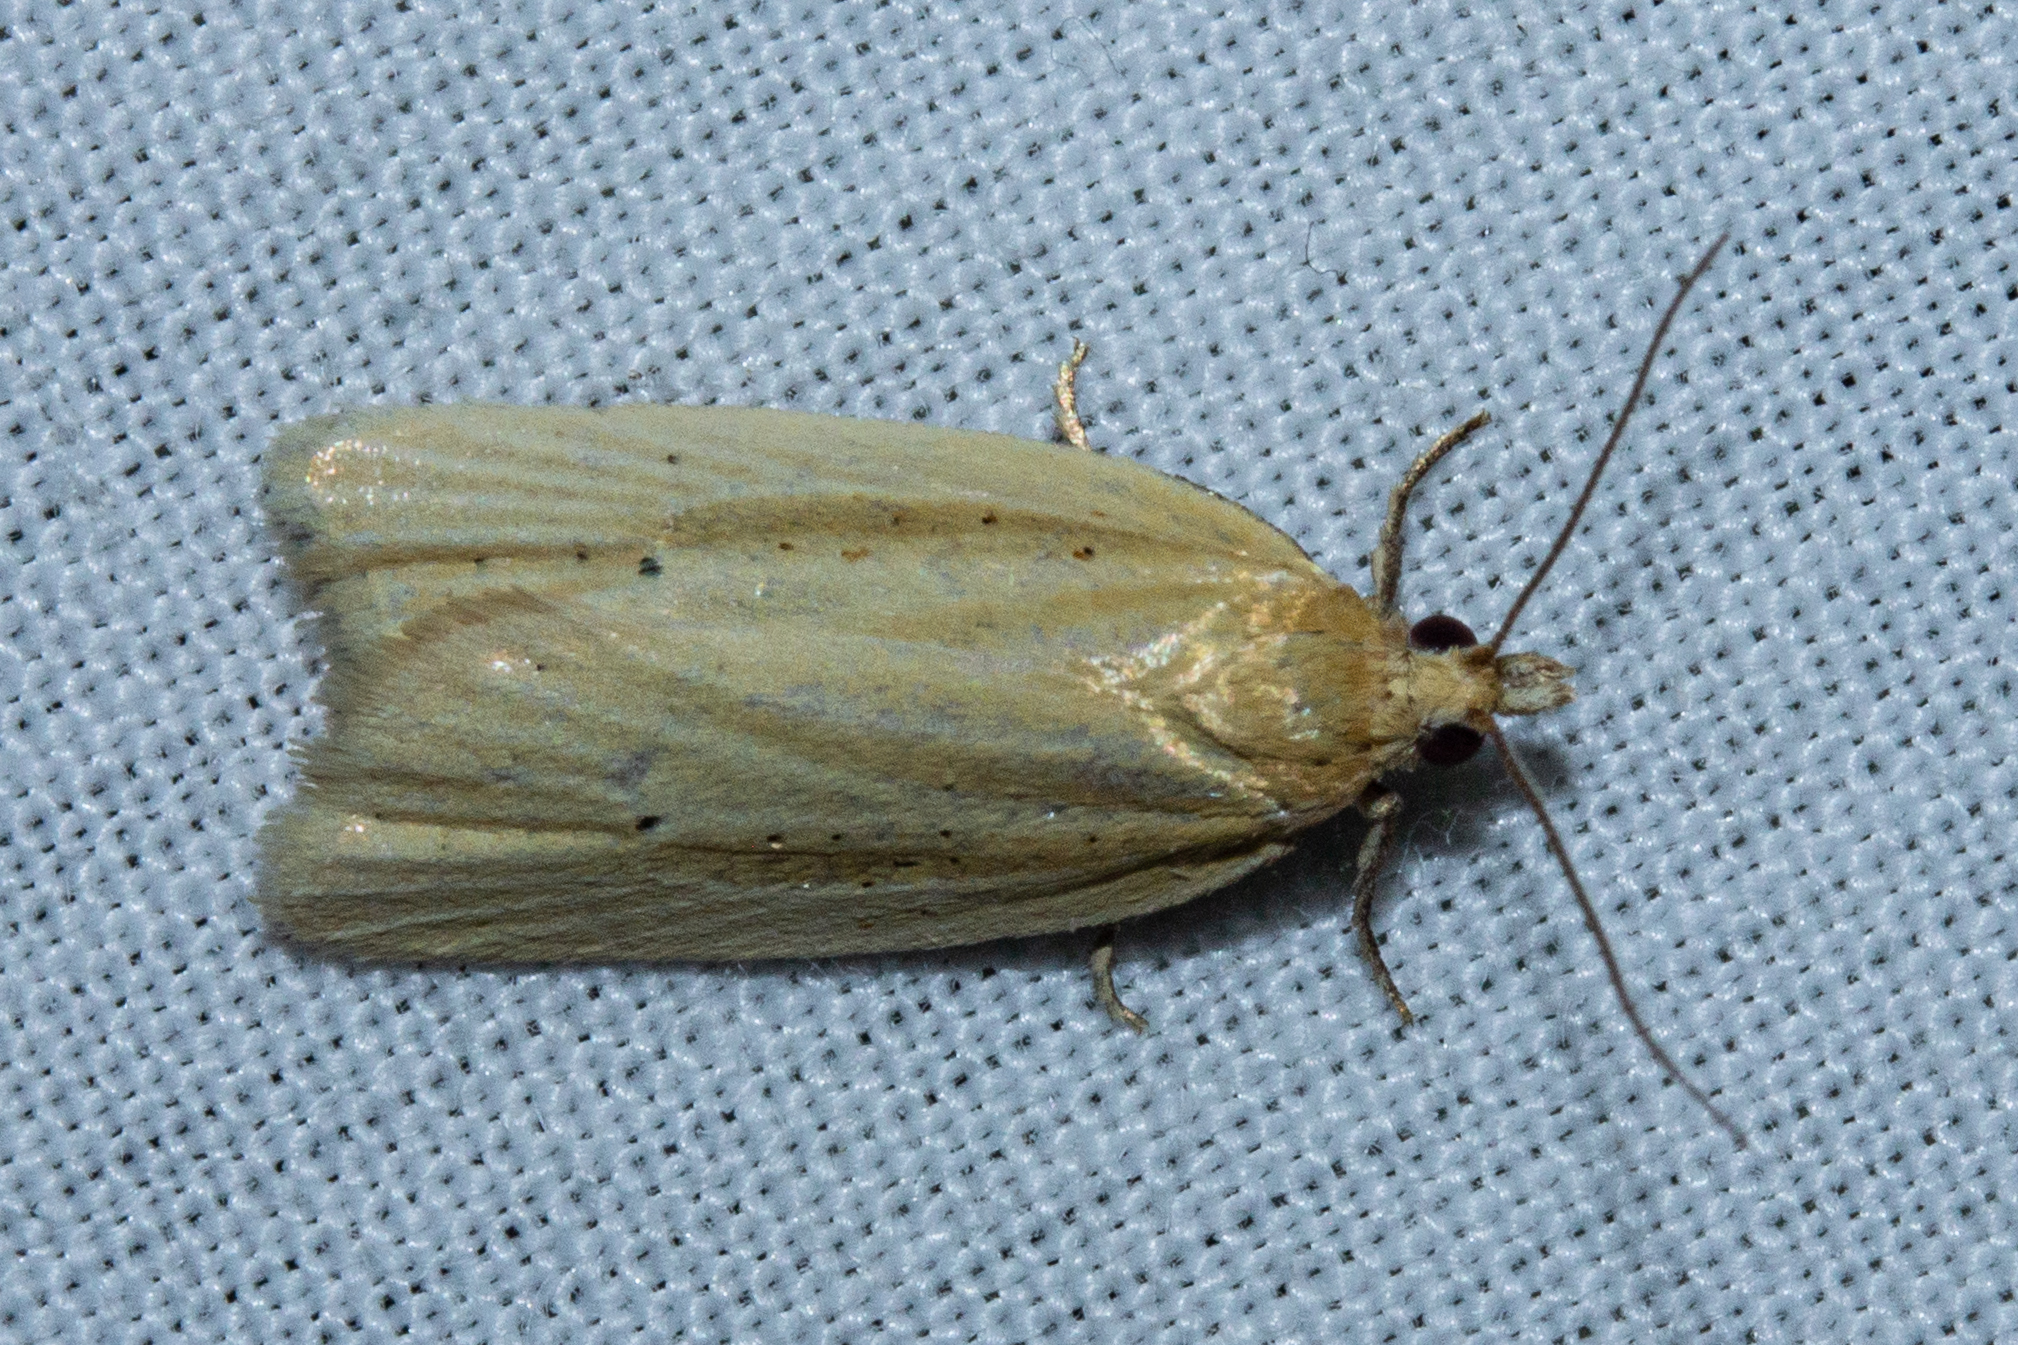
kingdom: Animalia
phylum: Arthropoda
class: Insecta
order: Lepidoptera
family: Tortricidae
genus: Clepsis
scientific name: Clepsis
